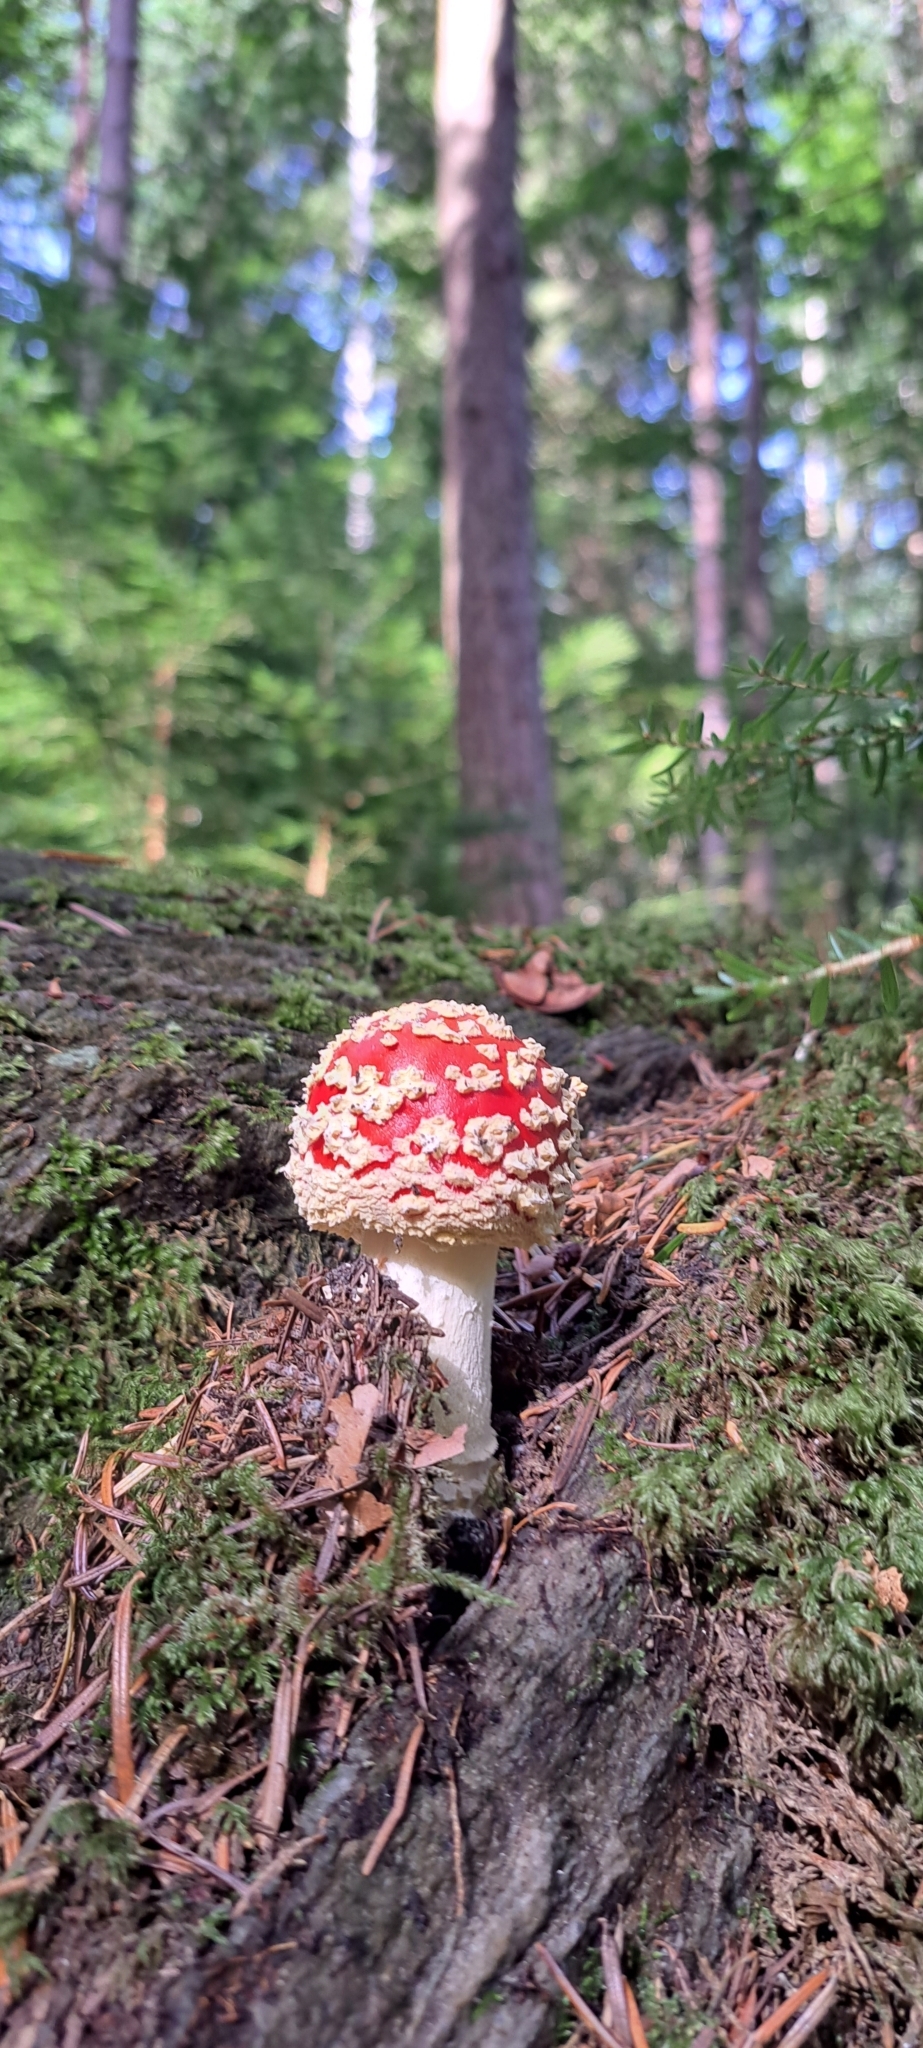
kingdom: Fungi
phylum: Basidiomycota
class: Agaricomycetes
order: Agaricales
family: Amanitaceae
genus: Amanita
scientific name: Amanita muscaria
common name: Fly agaric
